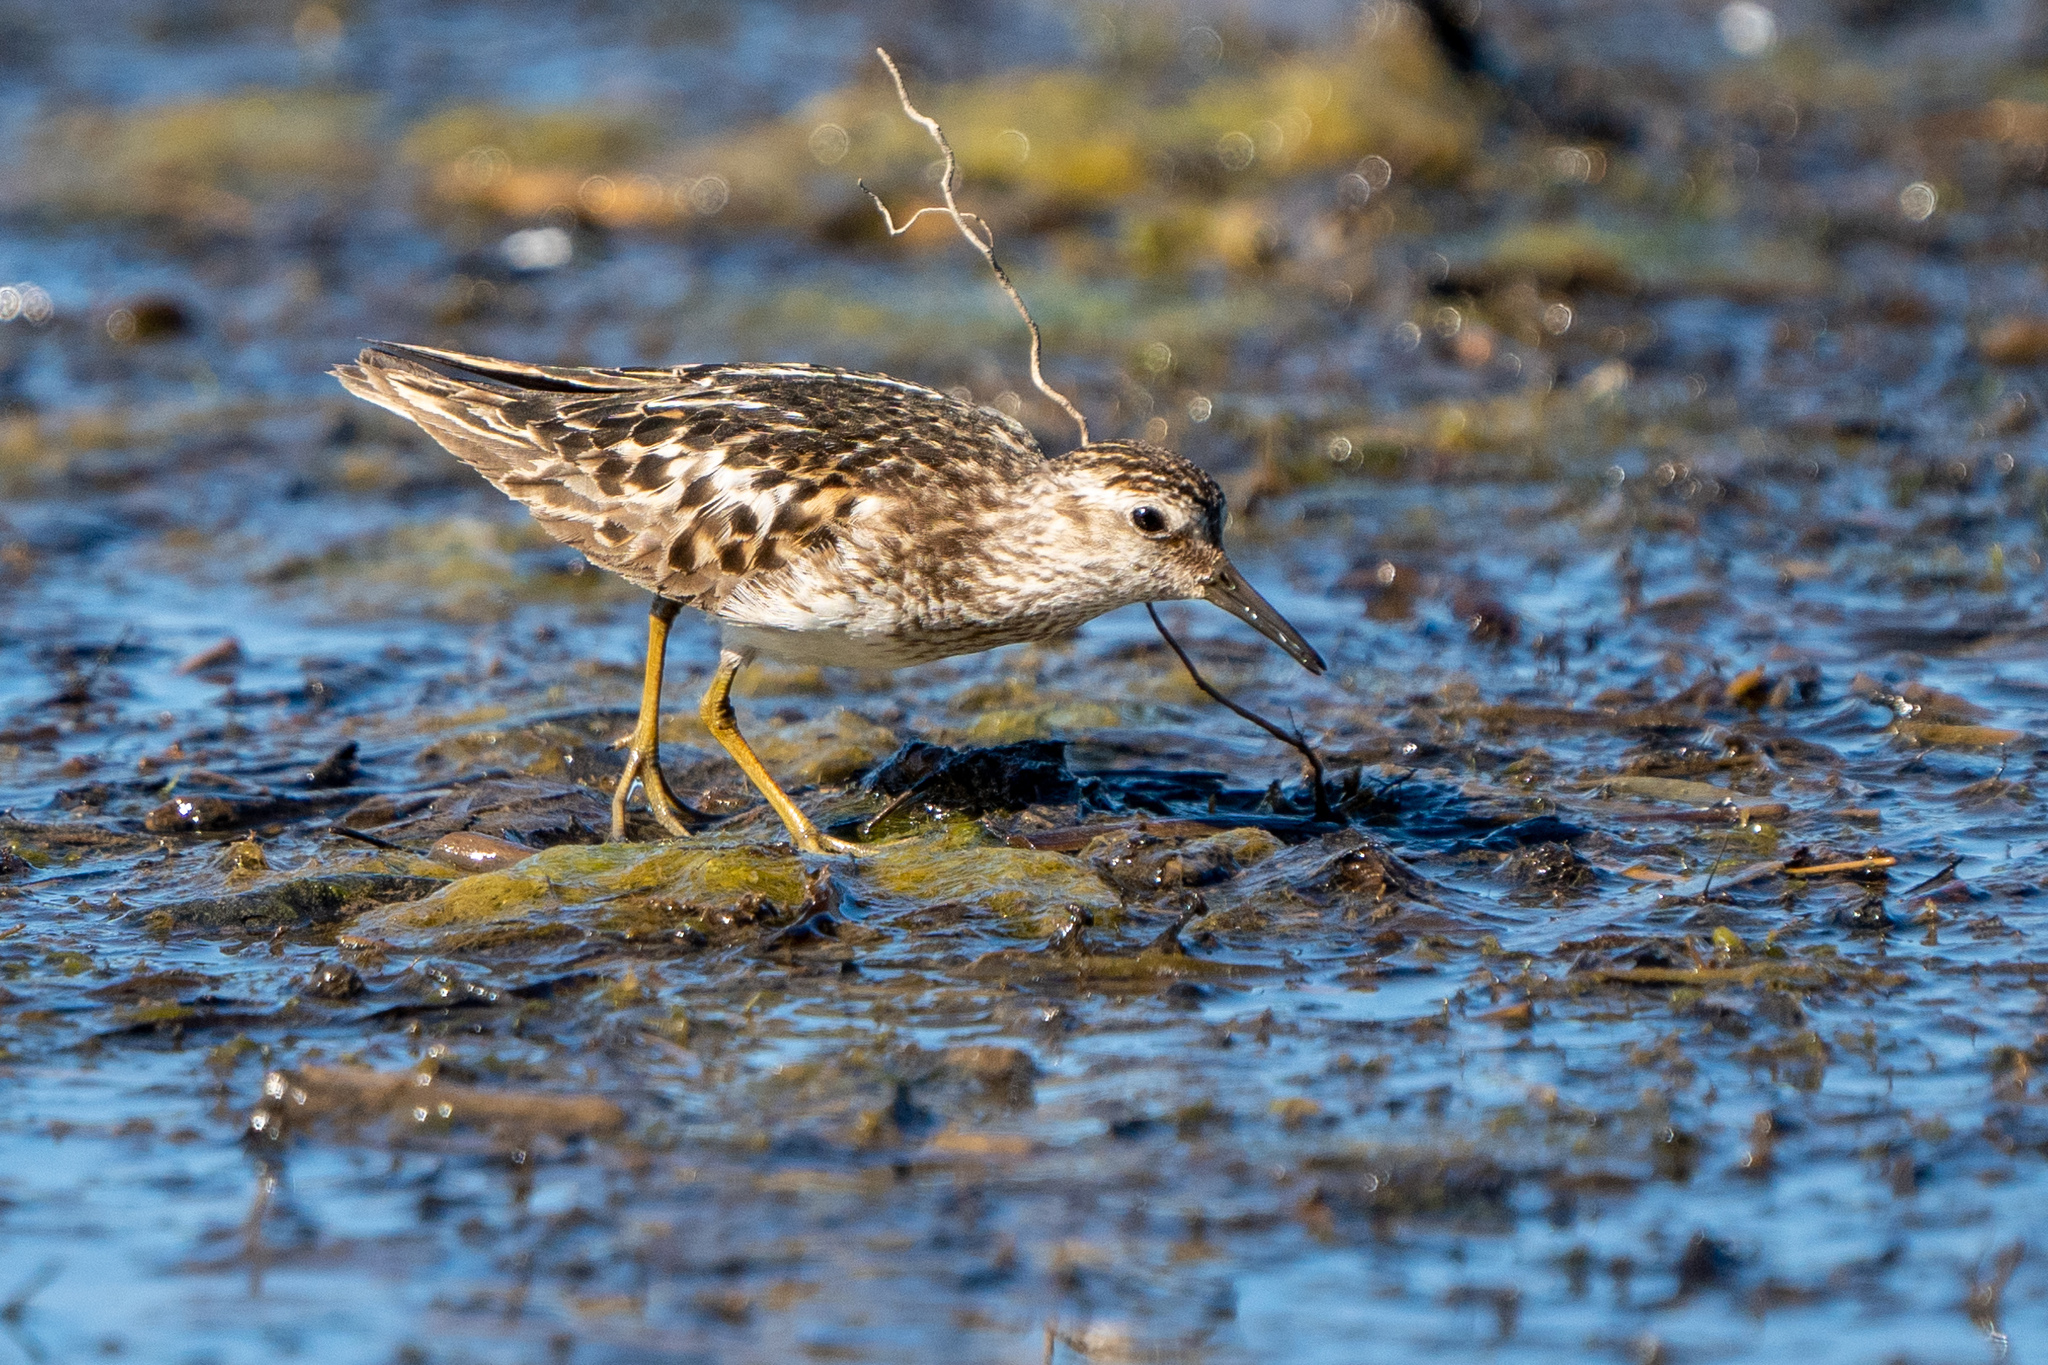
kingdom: Animalia
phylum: Chordata
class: Aves
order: Charadriiformes
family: Scolopacidae
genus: Calidris
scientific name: Calidris minutilla
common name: Least sandpiper
